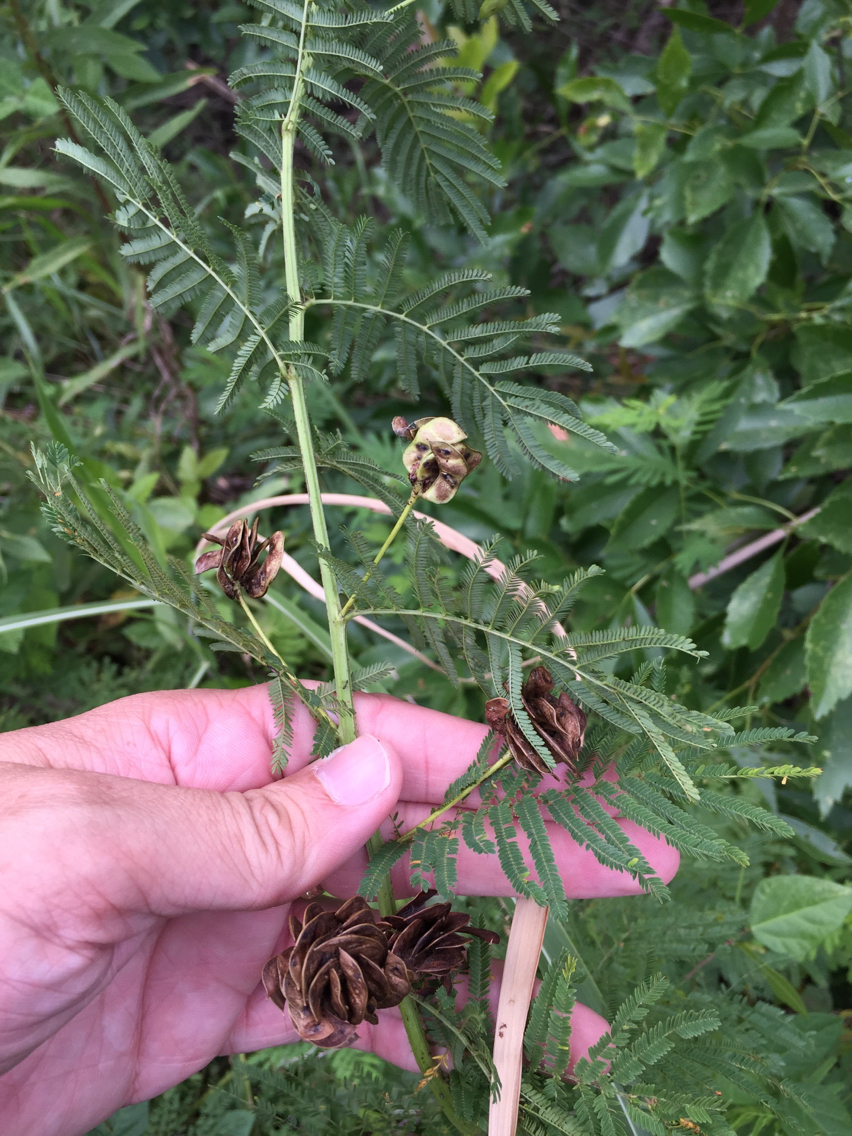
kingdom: Plantae
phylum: Tracheophyta
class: Magnoliopsida
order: Fabales
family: Fabaceae
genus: Desmanthus
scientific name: Desmanthus illinoensis
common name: Illinois bundle-flower
